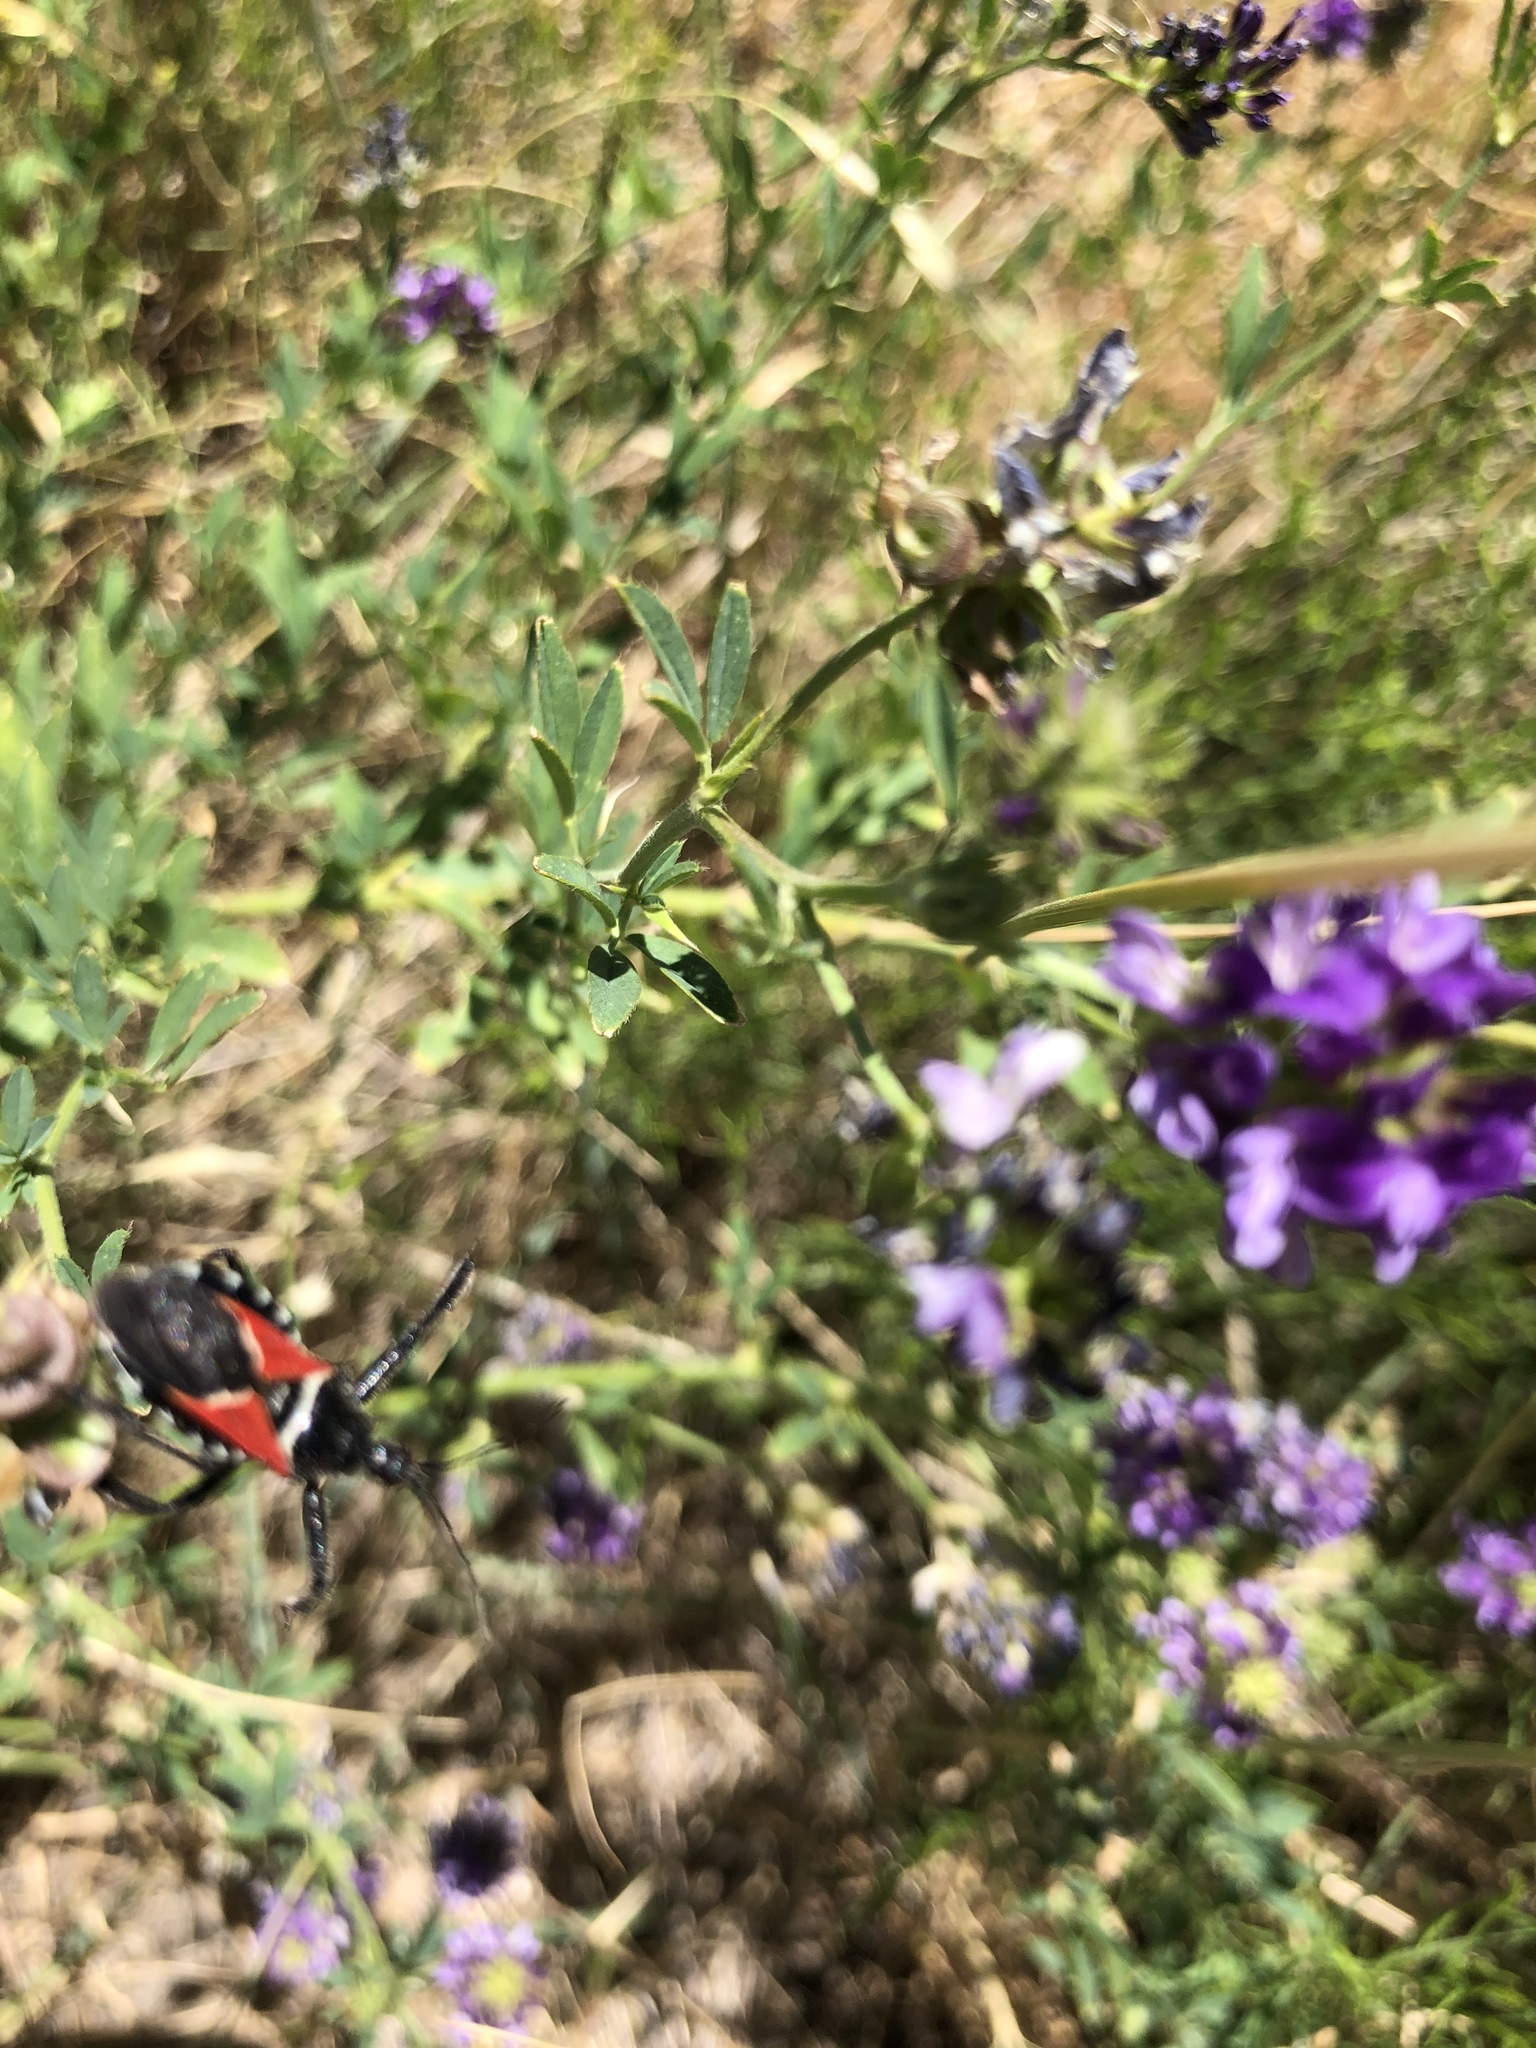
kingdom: Animalia
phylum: Arthropoda
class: Insecta
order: Hemiptera
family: Reduviidae
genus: Apiomerus
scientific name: Apiomerus montanus
